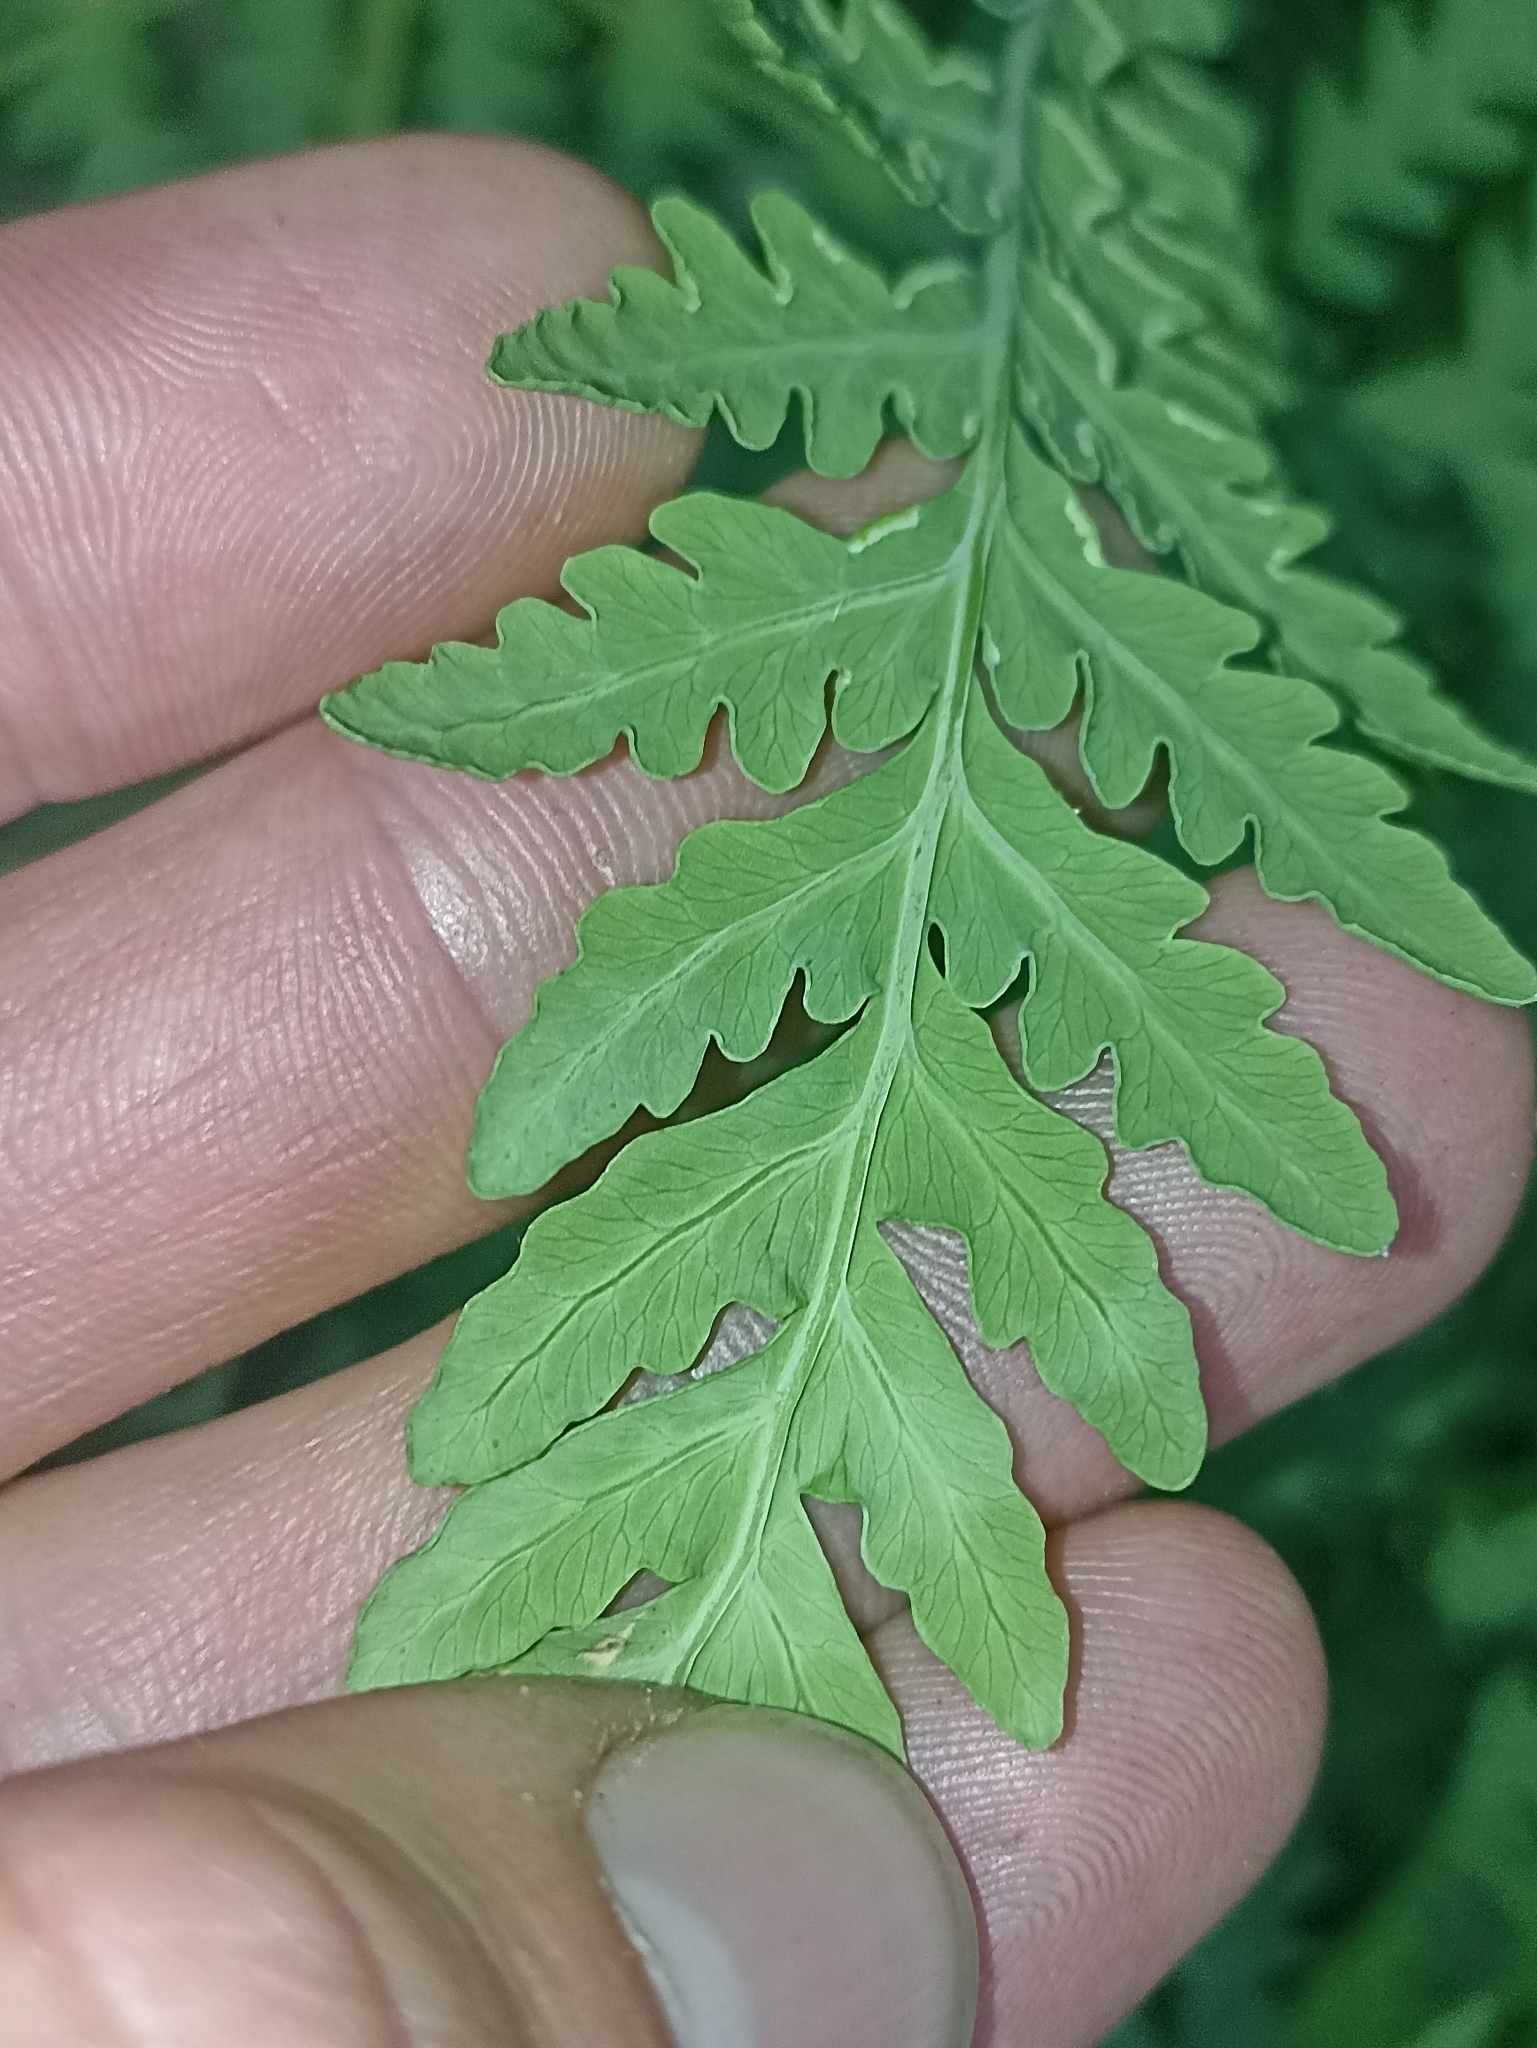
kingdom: Plantae
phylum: Tracheophyta
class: Polypodiopsida
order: Polypodiales
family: Dennstaedtiaceae
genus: Histiopteris
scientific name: Histiopteris incisa
